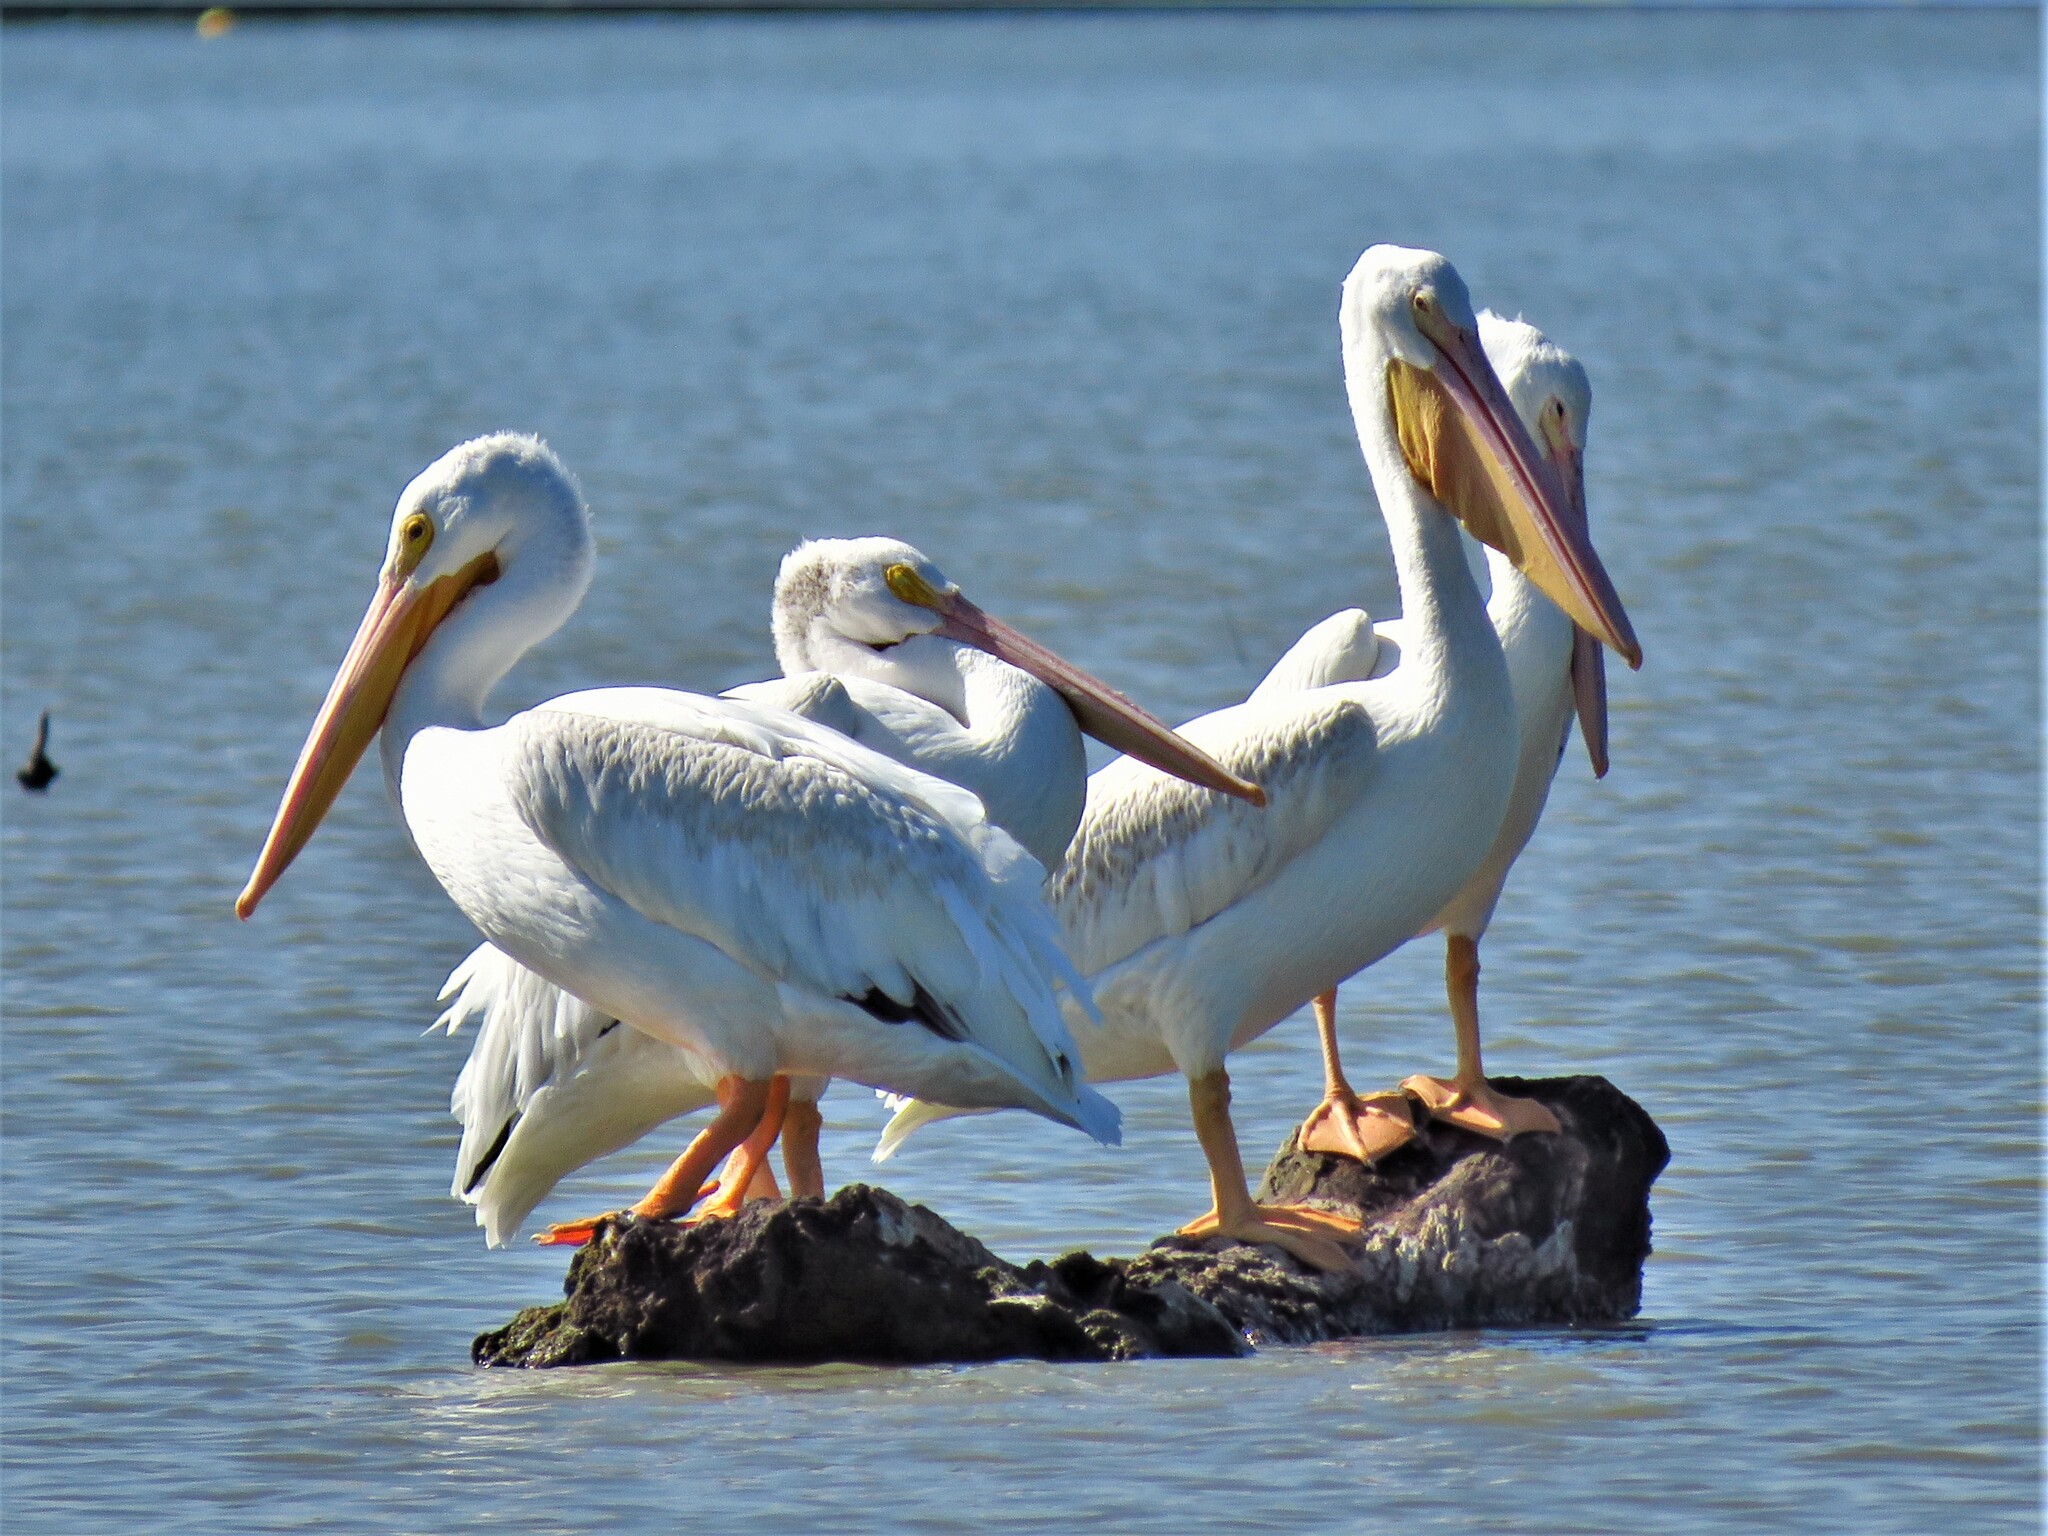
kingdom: Animalia
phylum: Chordata
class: Aves
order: Pelecaniformes
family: Pelecanidae
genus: Pelecanus
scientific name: Pelecanus erythrorhynchos
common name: American white pelican
